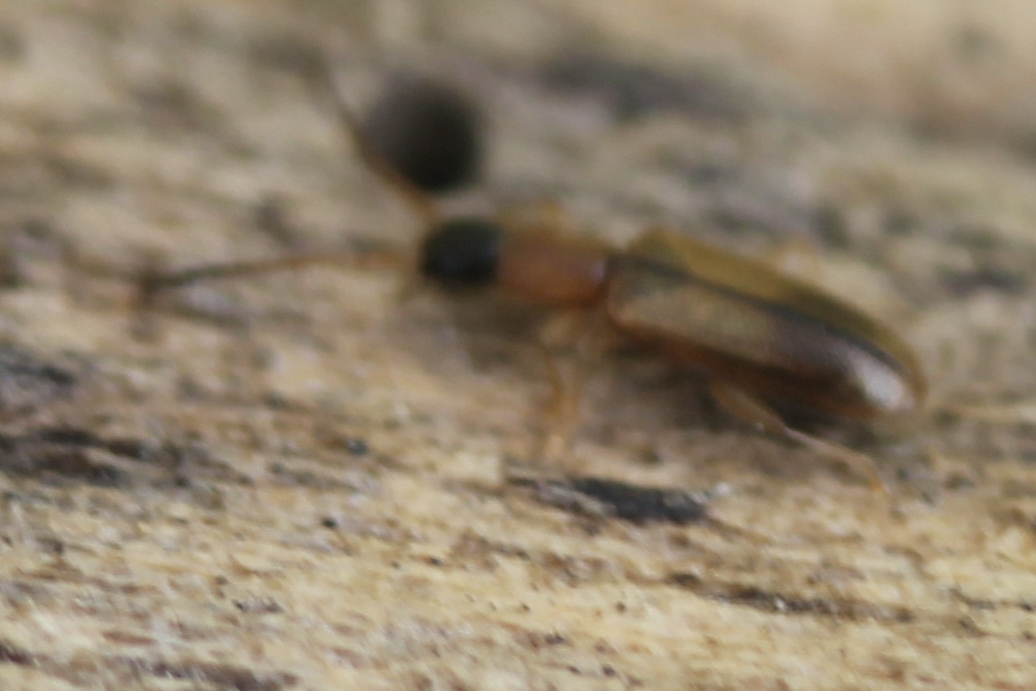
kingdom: Animalia
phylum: Arthropoda
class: Insecta
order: Coleoptera
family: Silvanidae
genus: Telephanus
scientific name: Telephanus velox
